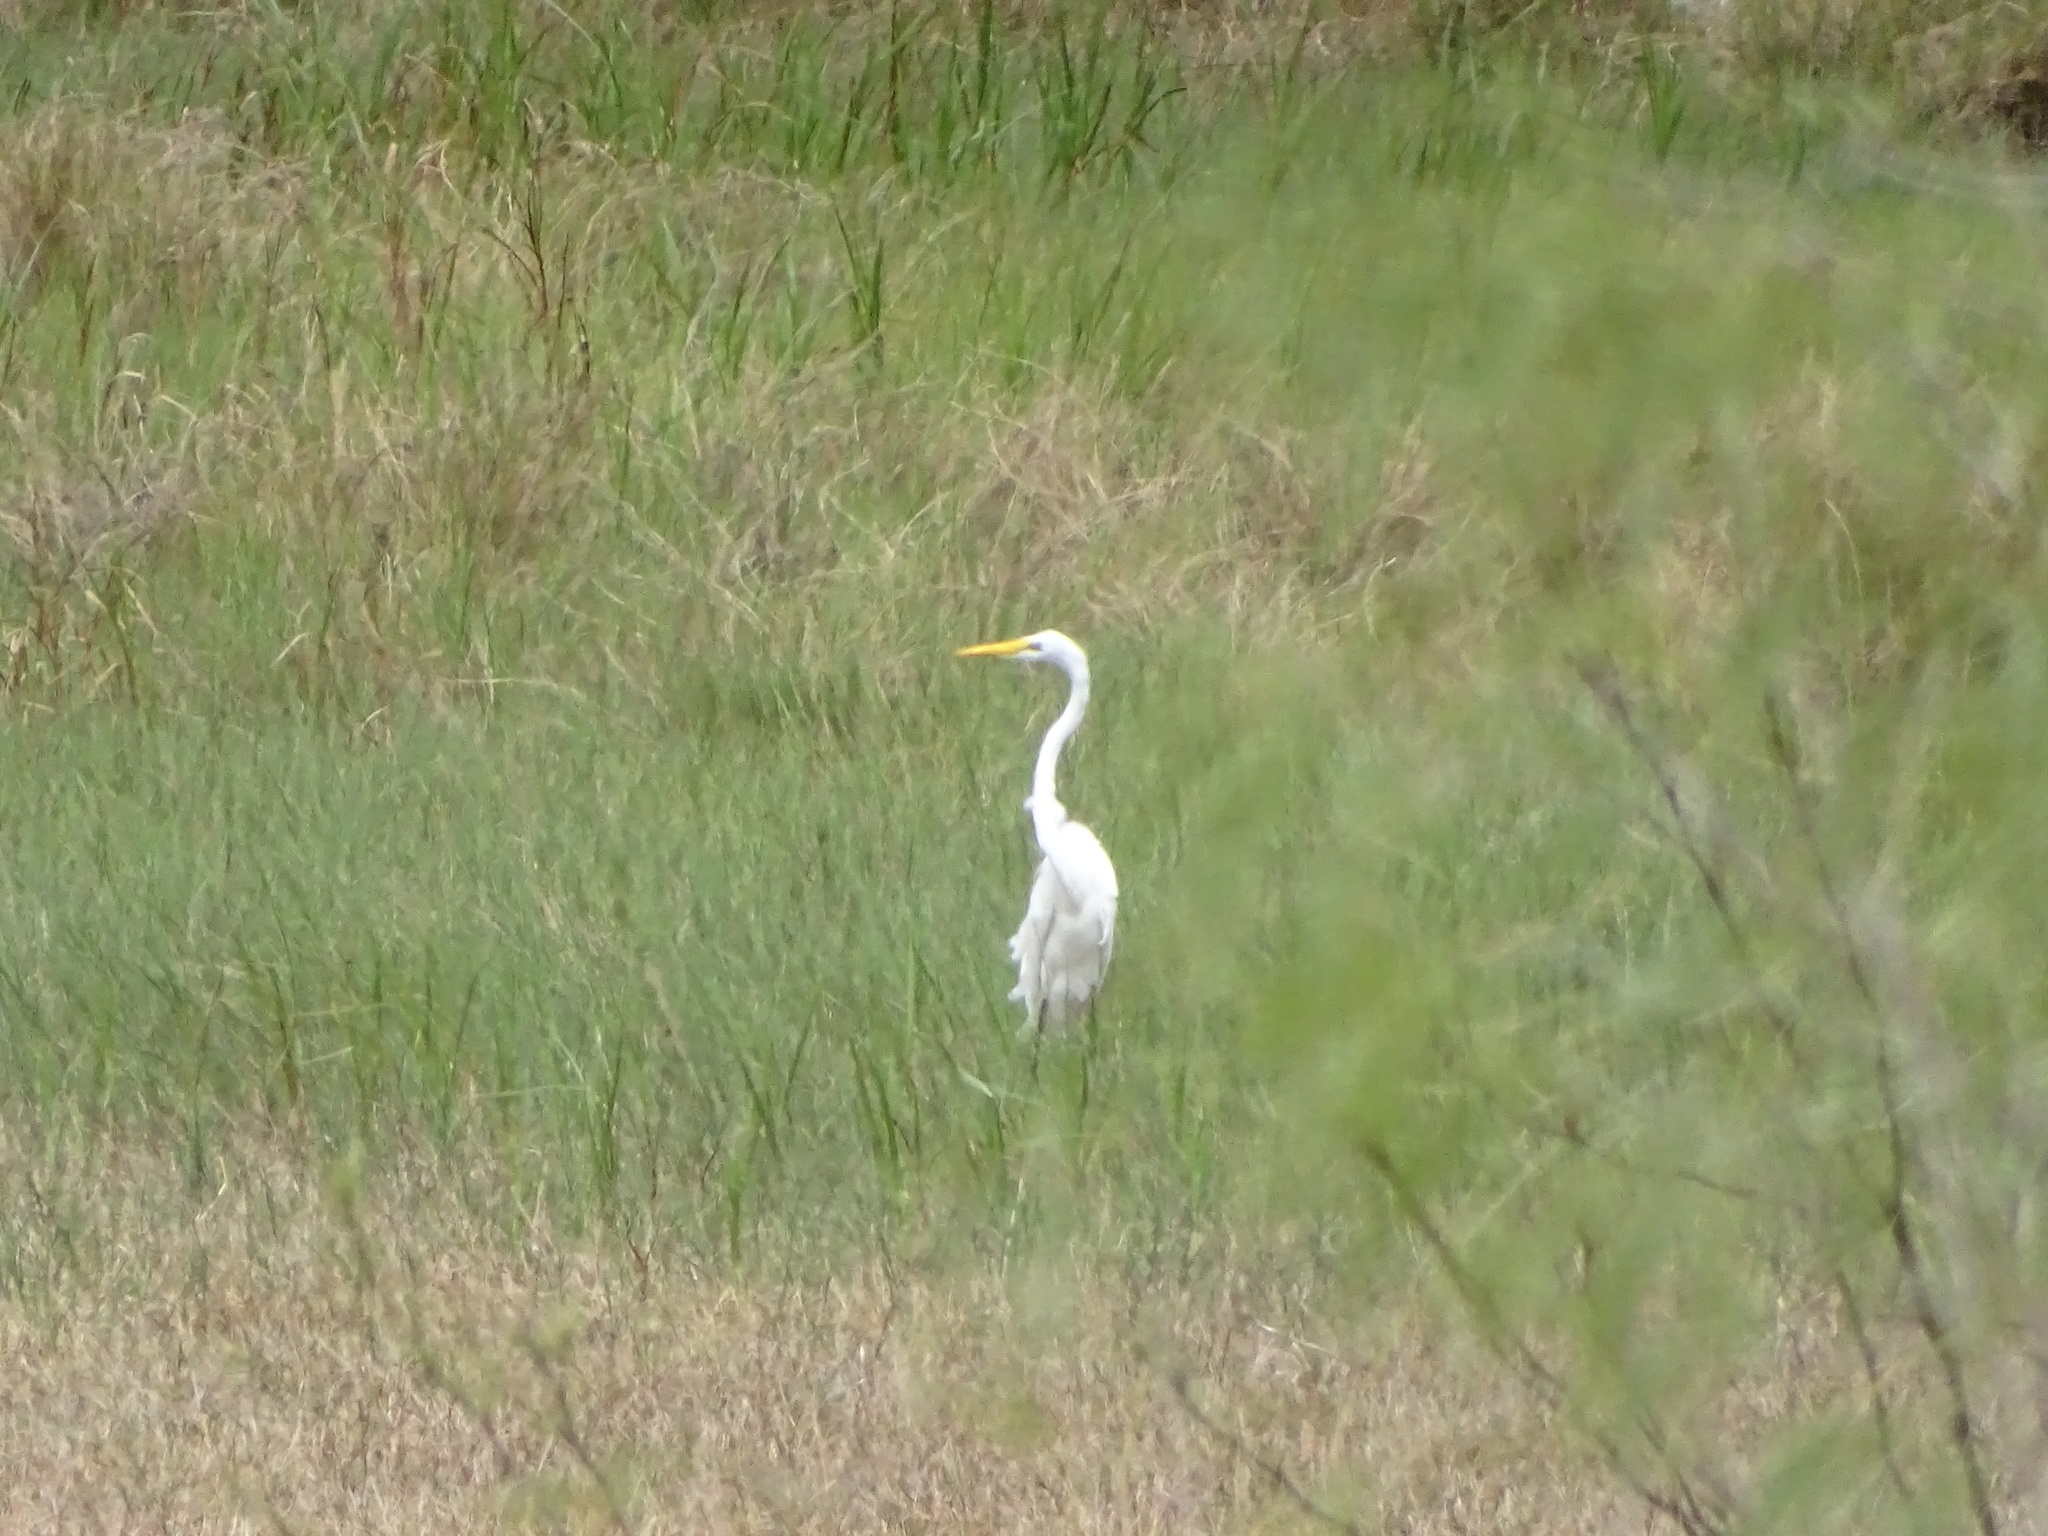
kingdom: Animalia
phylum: Chordata
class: Aves
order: Pelecaniformes
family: Ardeidae
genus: Ardea
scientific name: Ardea alba
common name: Great egret
